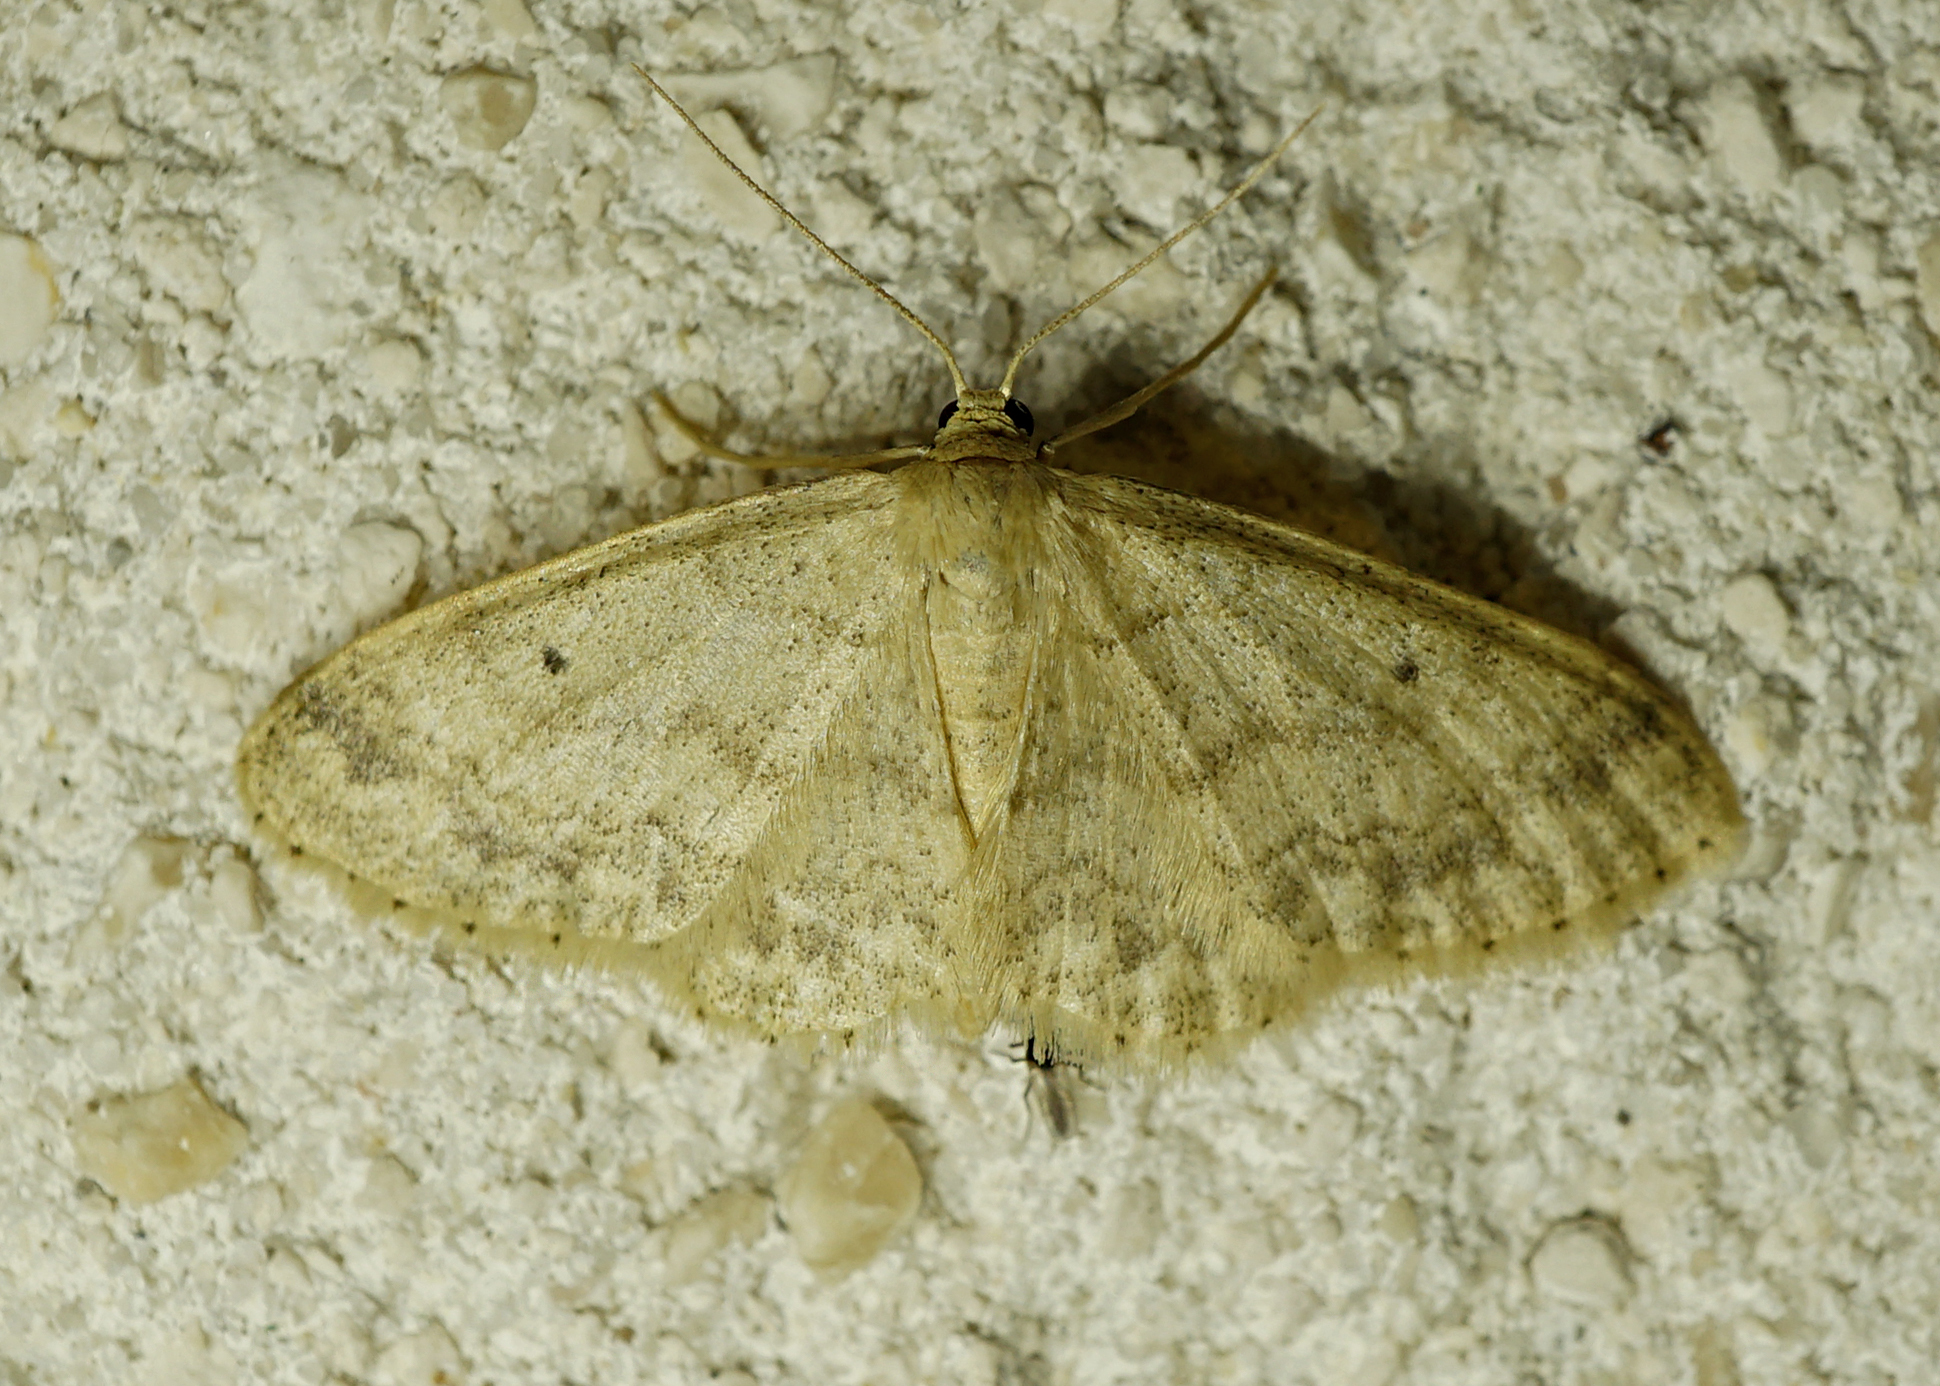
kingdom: Animalia
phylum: Arthropoda
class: Insecta
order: Lepidoptera
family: Geometridae
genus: Idaea
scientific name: Idaea biselata
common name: Small fan-footed wave
